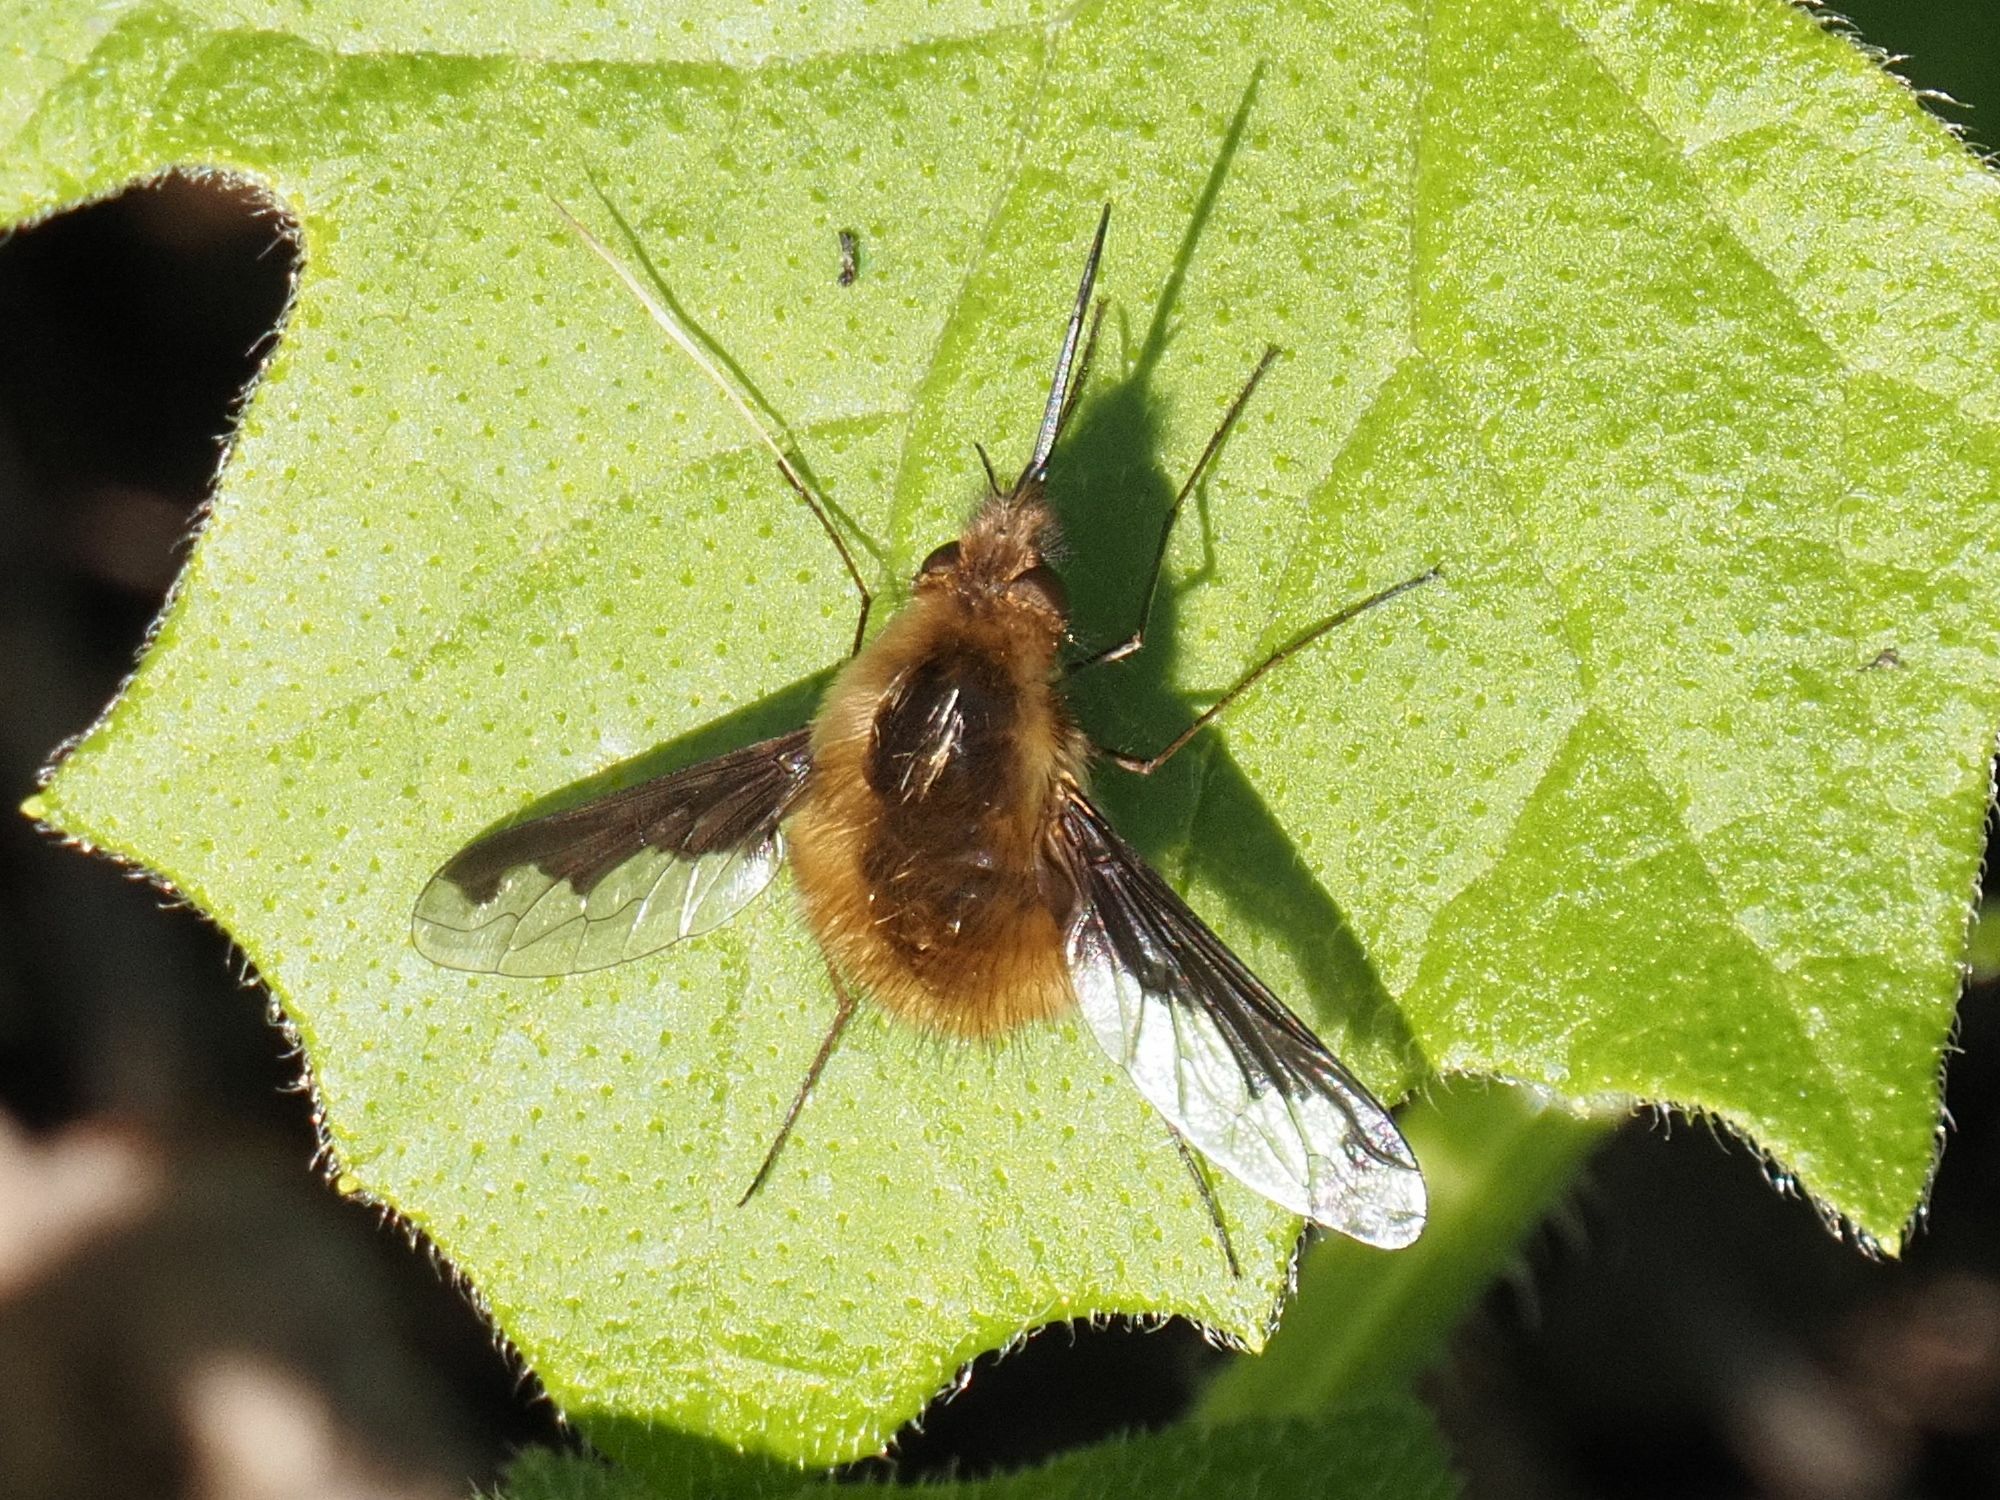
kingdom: Animalia
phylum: Arthropoda
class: Insecta
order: Diptera
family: Bombyliidae
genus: Bombylius
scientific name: Bombylius major
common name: Bee fly
